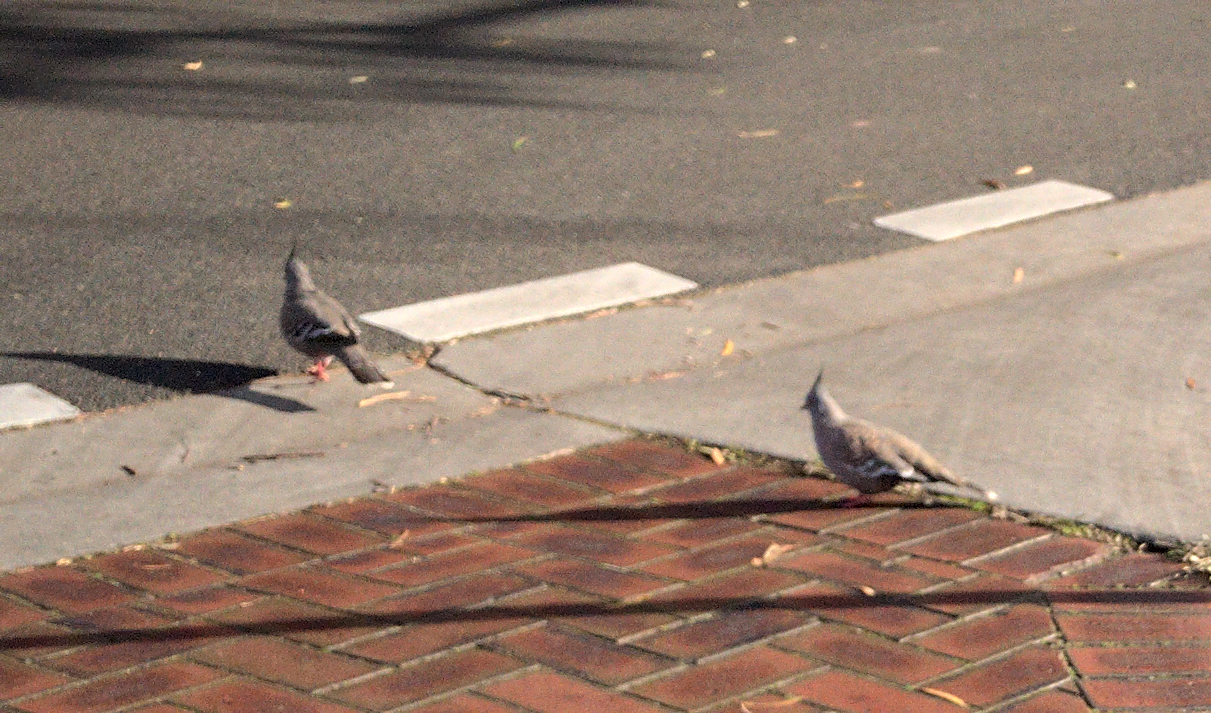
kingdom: Animalia
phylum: Chordata
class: Aves
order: Columbiformes
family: Columbidae
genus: Ocyphaps
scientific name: Ocyphaps lophotes
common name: Crested pigeon
